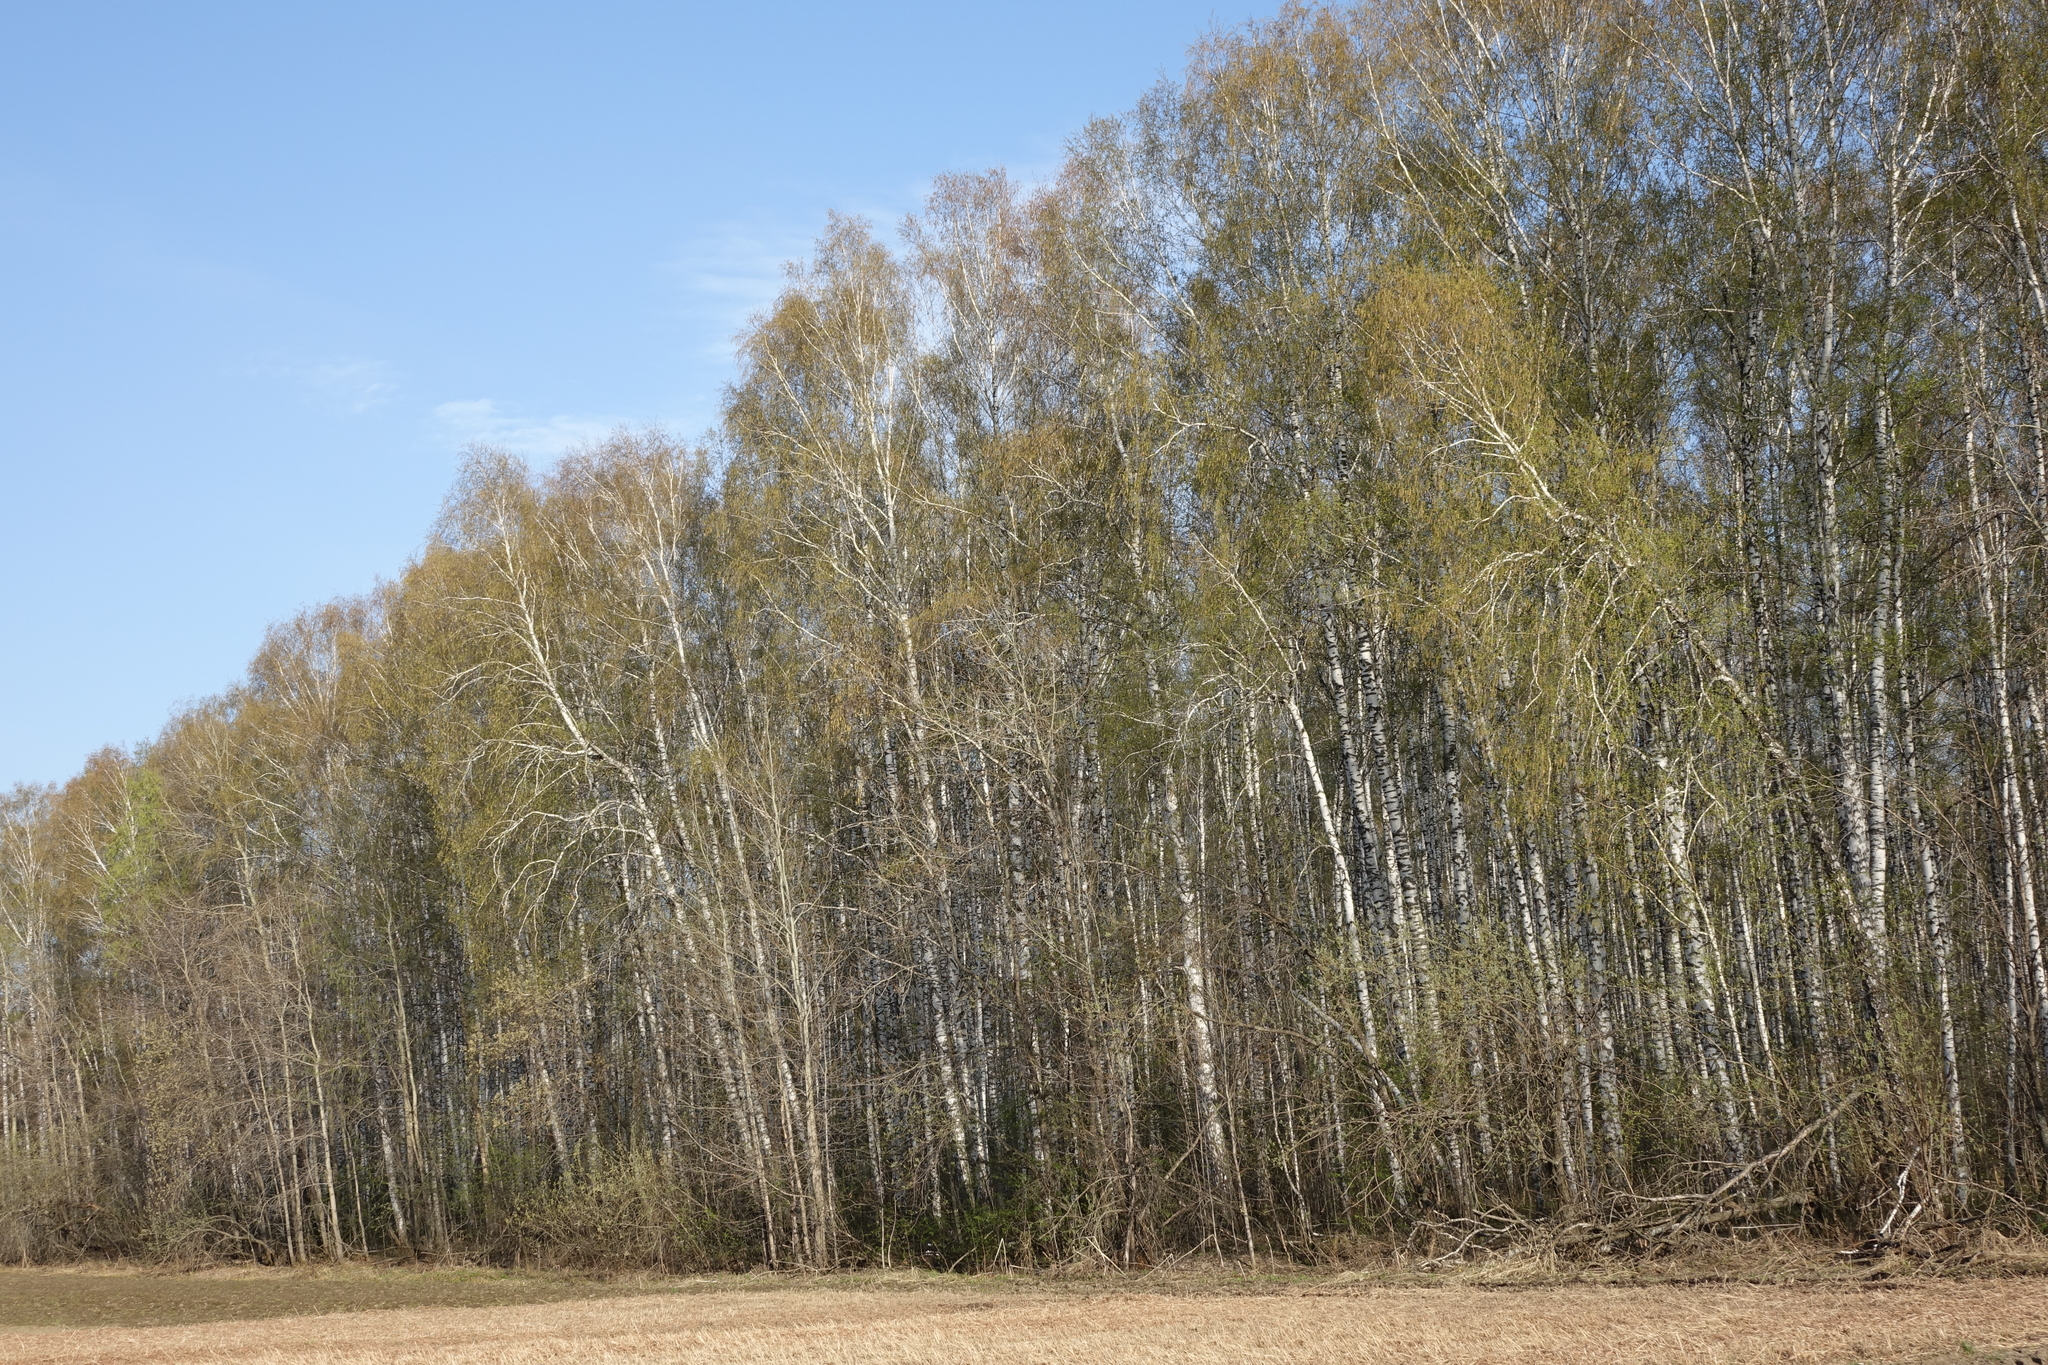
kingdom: Plantae
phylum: Tracheophyta
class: Magnoliopsida
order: Fagales
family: Betulaceae
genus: Betula
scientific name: Betula pendula
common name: Silver birch
